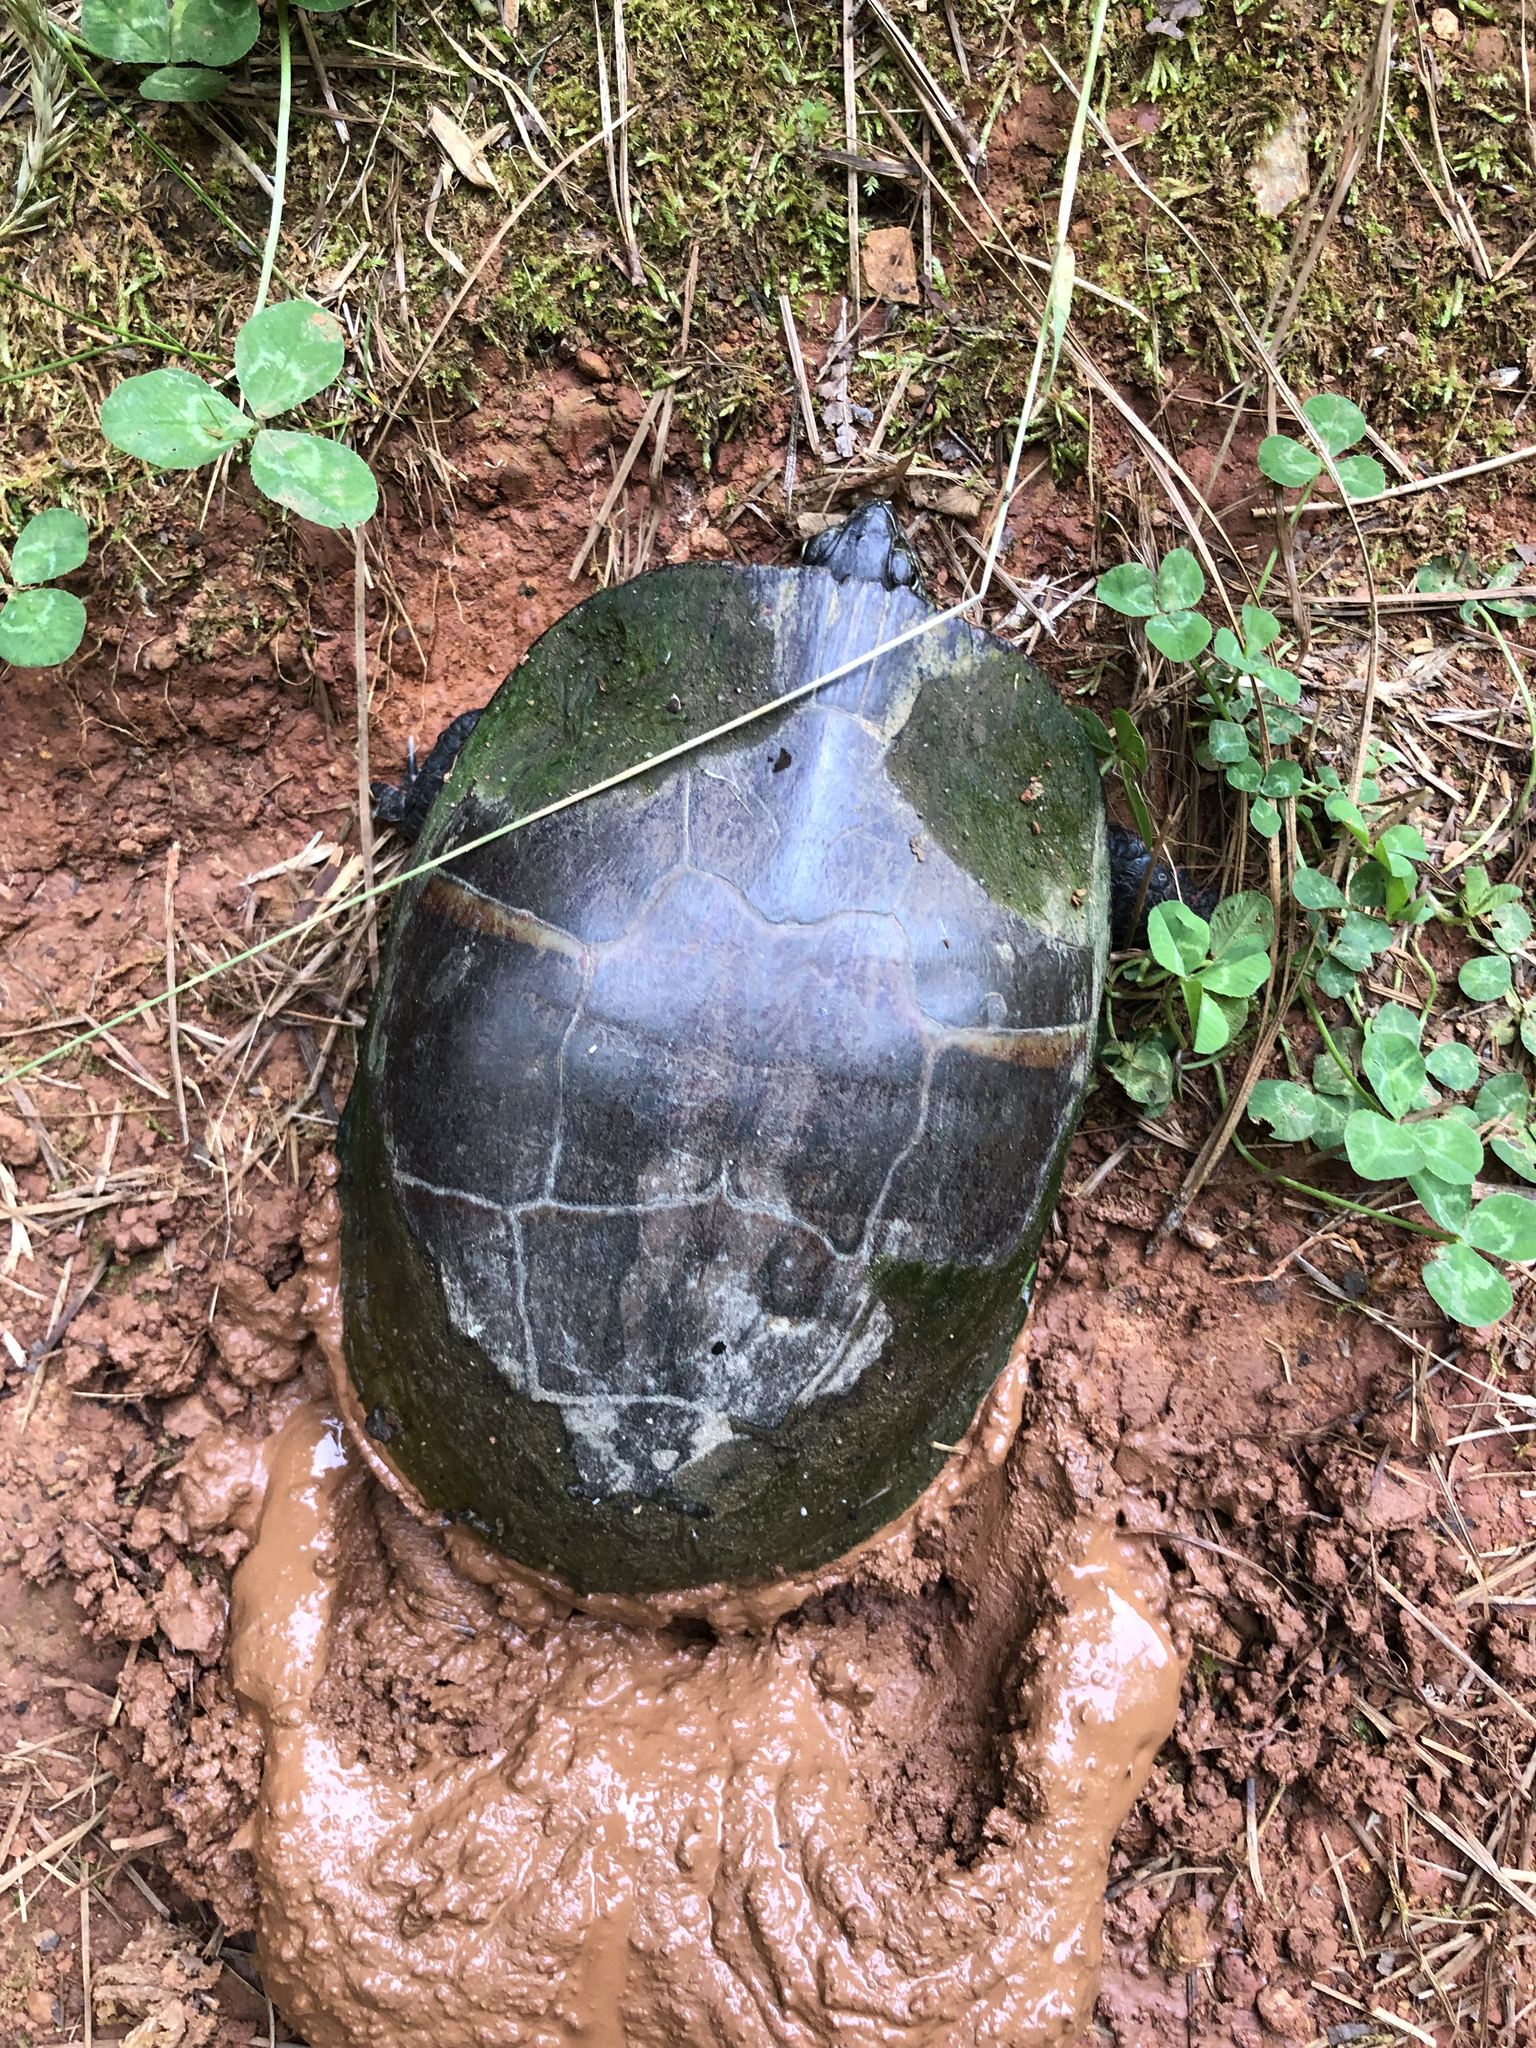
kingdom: Animalia
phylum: Chordata
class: Testudines
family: Emydidae
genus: Chrysemys
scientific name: Chrysemys picta
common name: Painted turtle
